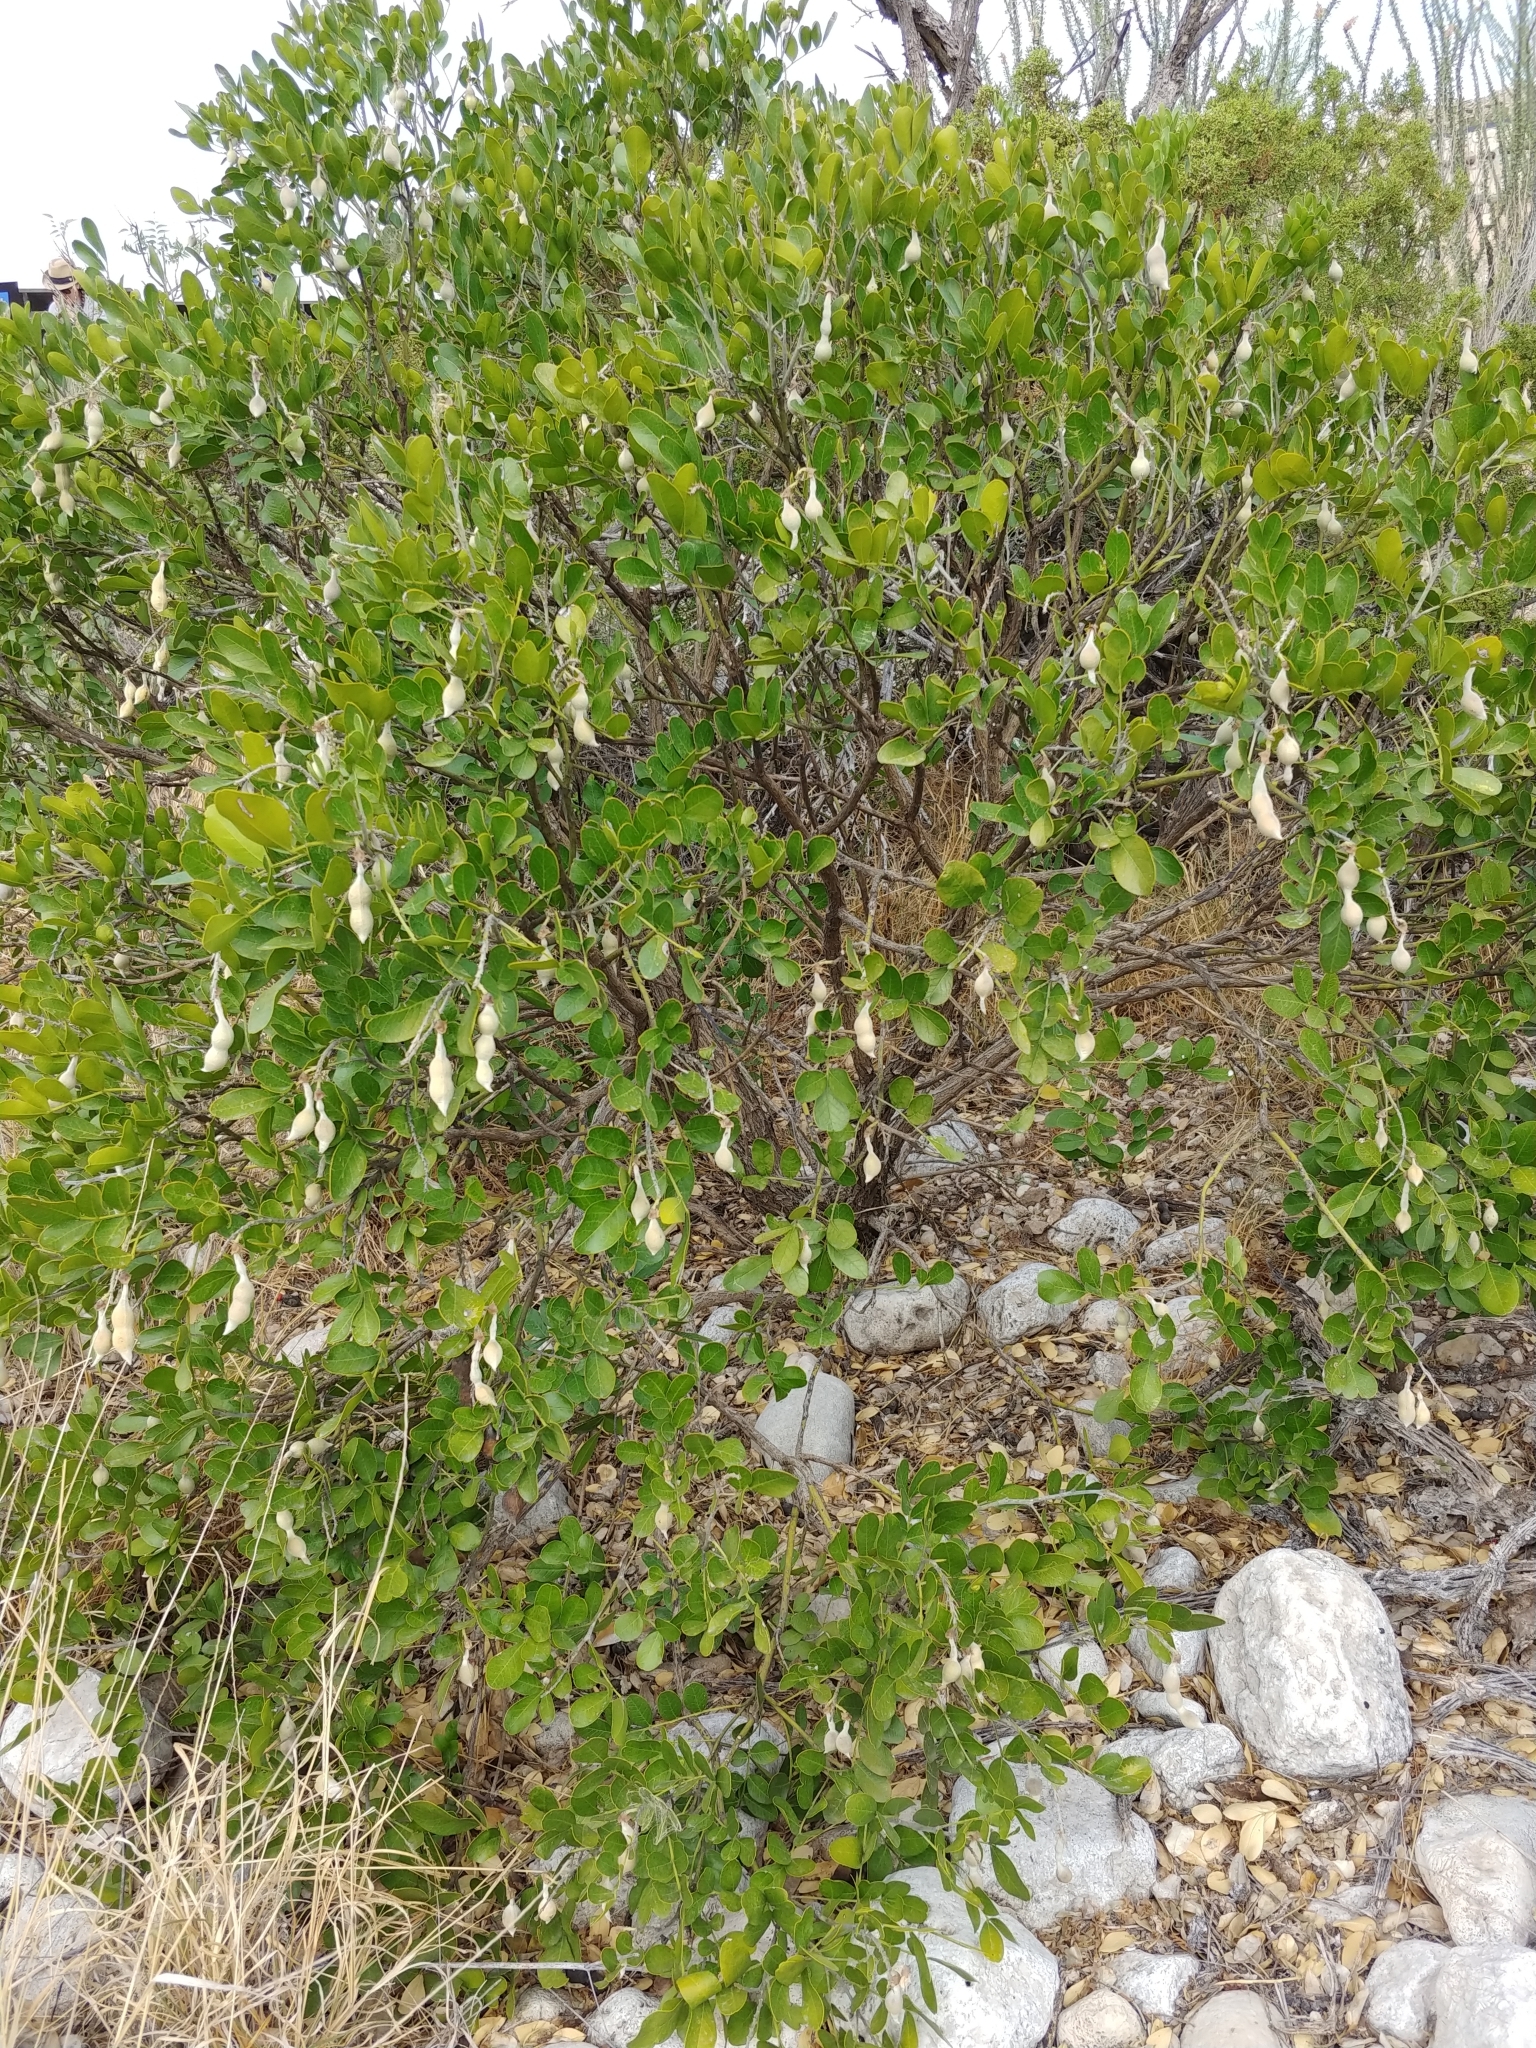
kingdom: Plantae
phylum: Tracheophyta
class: Magnoliopsida
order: Fabales
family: Fabaceae
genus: Dermatophyllum
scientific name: Dermatophyllum secundiflorum
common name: Texas-mountain-laurel
